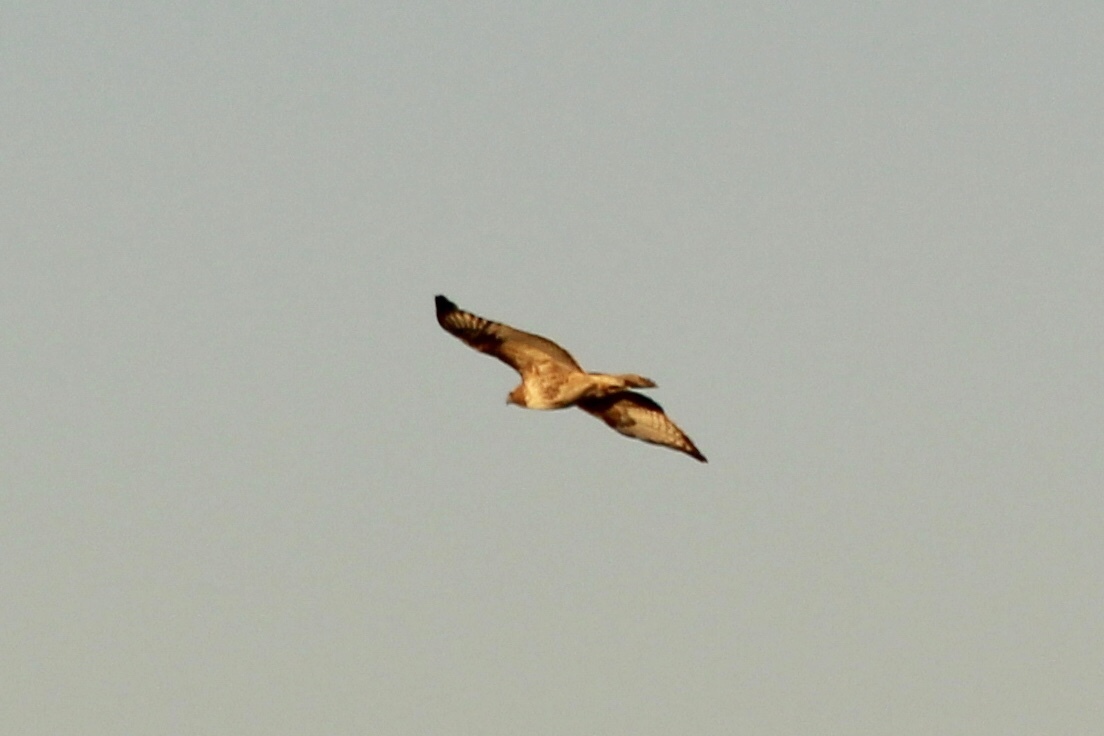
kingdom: Animalia
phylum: Chordata
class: Aves
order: Accipitriformes
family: Accipitridae
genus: Buteo
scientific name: Buteo jamaicensis
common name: Red-tailed hawk
